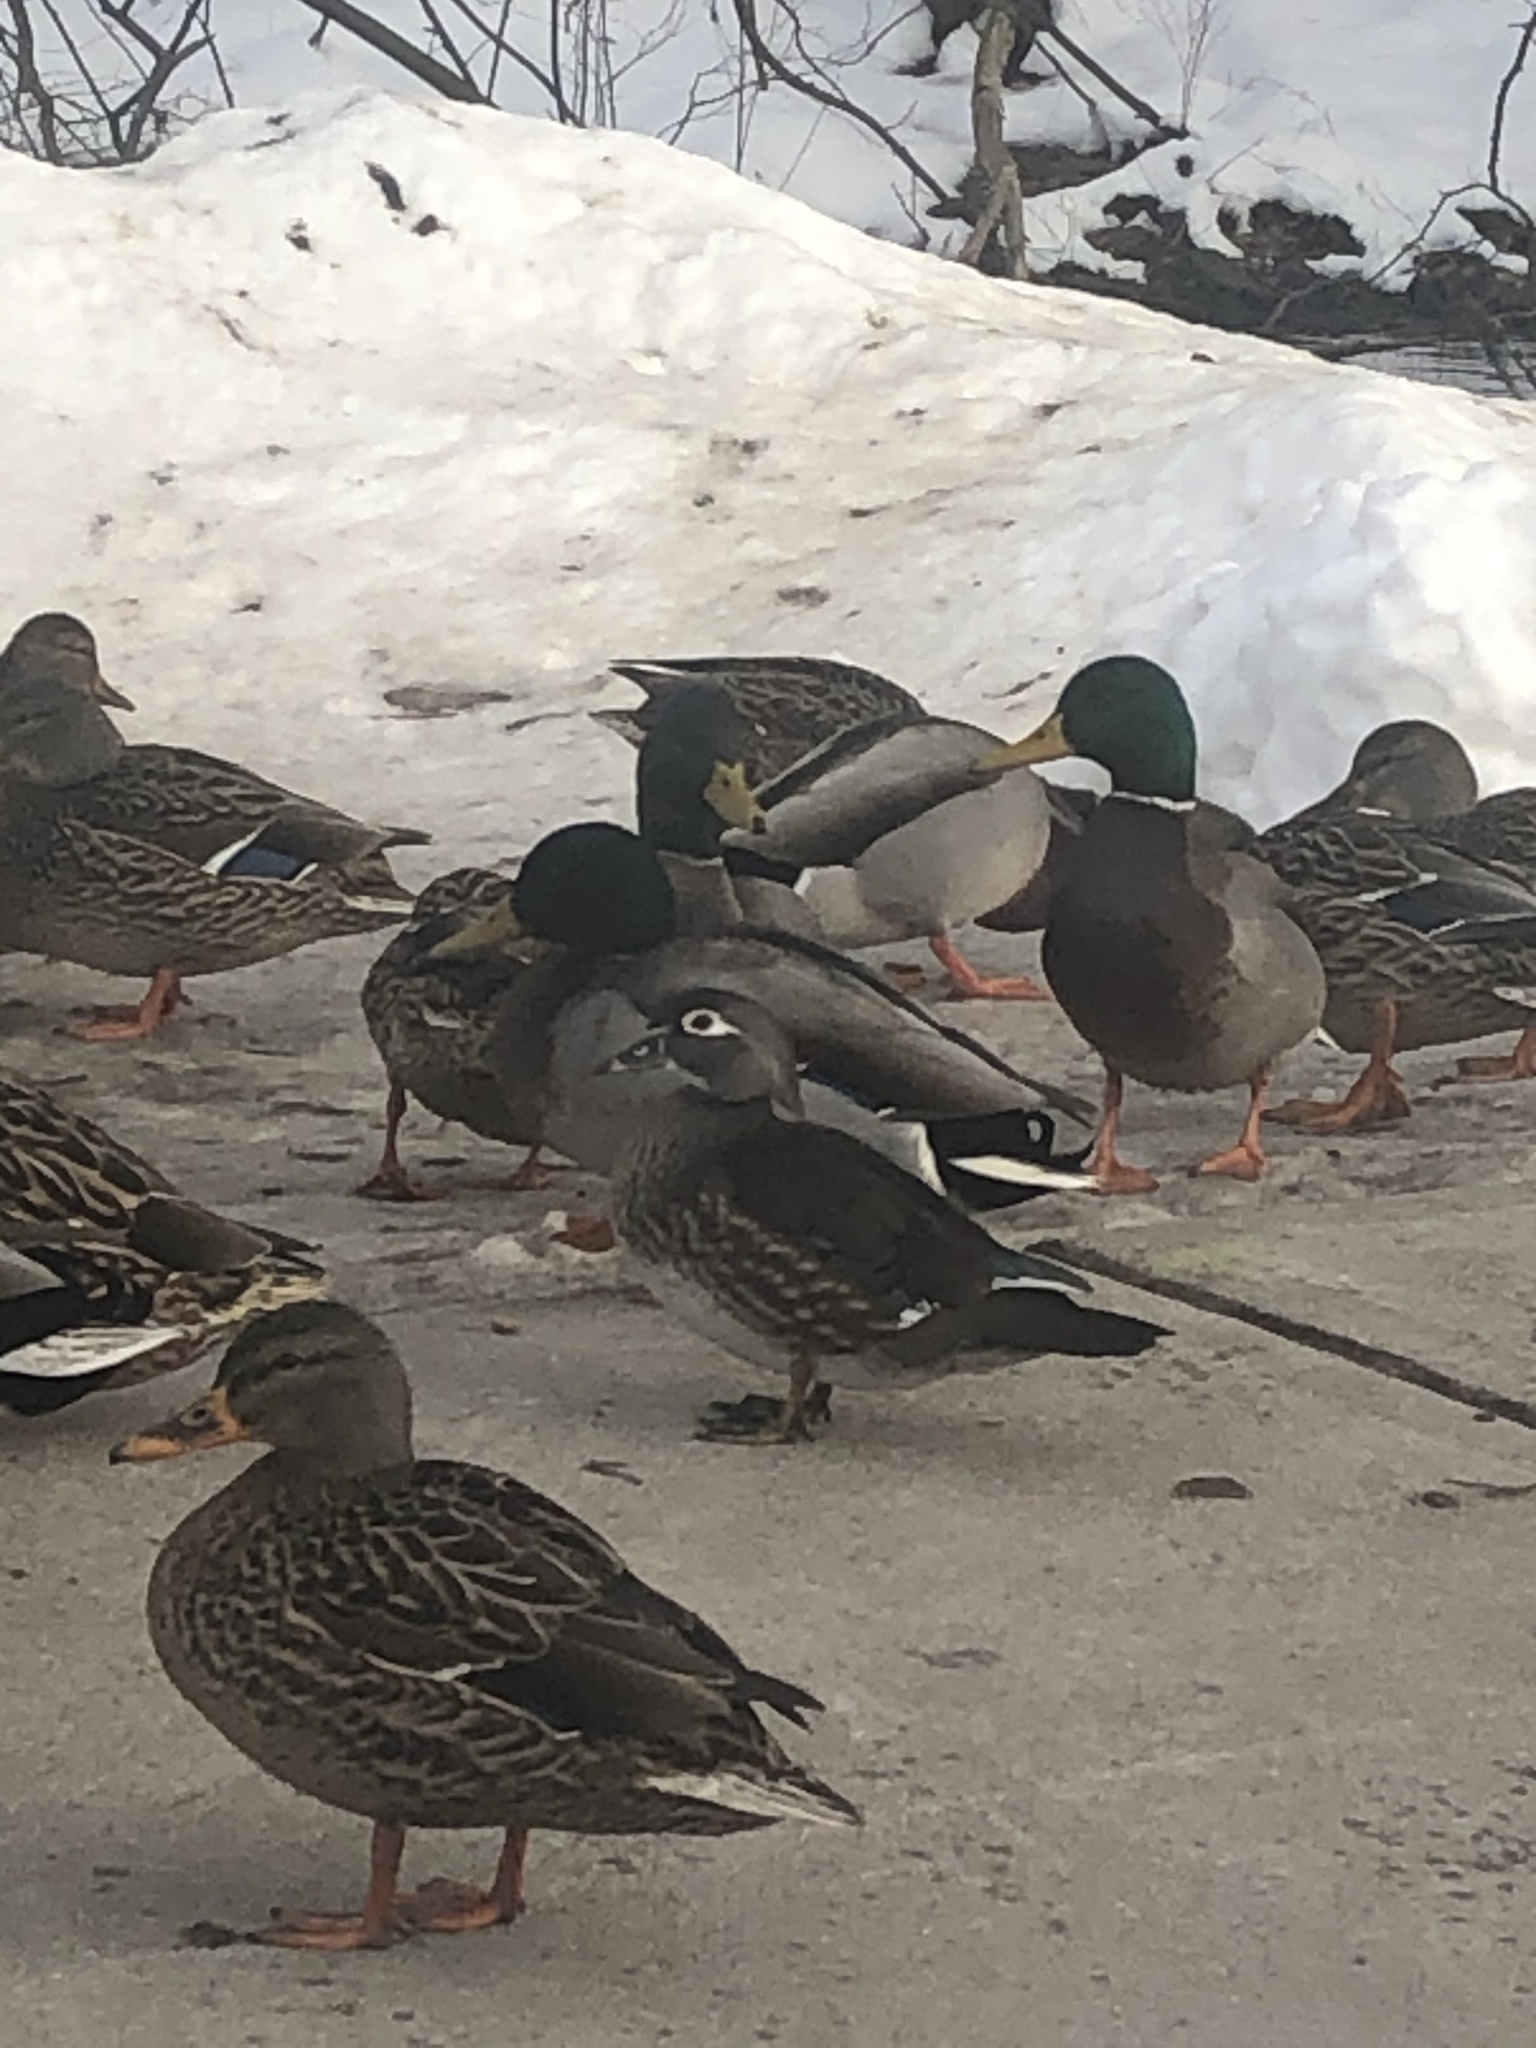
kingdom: Animalia
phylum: Chordata
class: Aves
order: Anseriformes
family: Anatidae
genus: Aix
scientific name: Aix sponsa
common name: Wood duck
